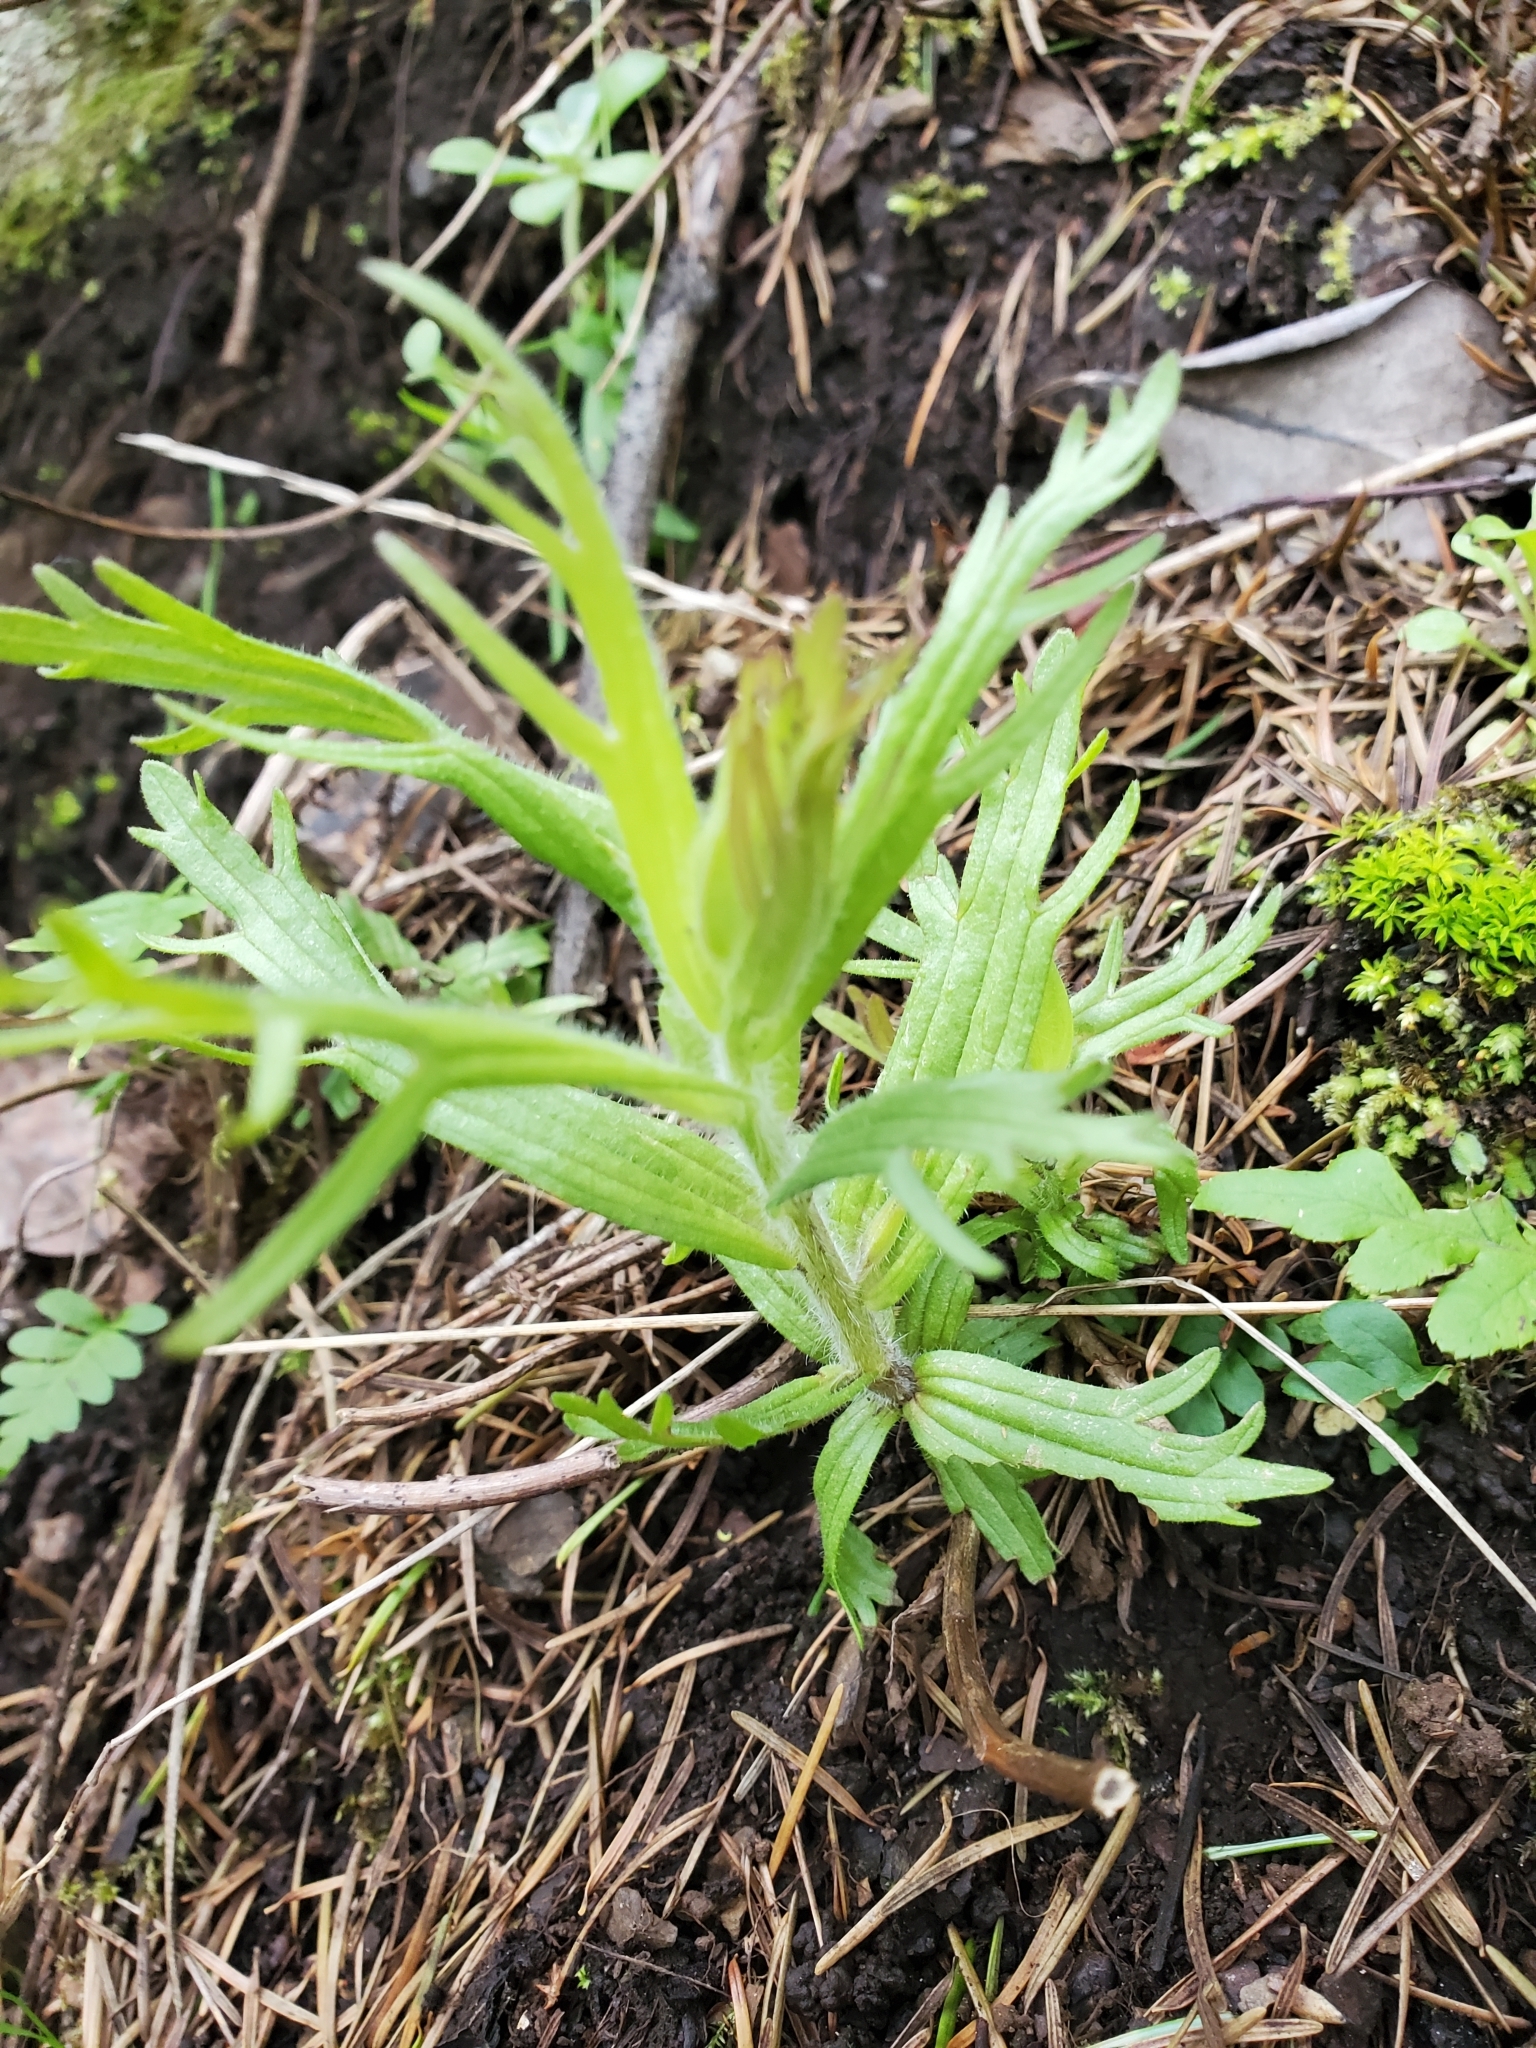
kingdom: Plantae
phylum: Tracheophyta
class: Magnoliopsida
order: Lamiales
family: Orobanchaceae
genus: Castilleja
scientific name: Castilleja hispida
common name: Bristly paintbrush
